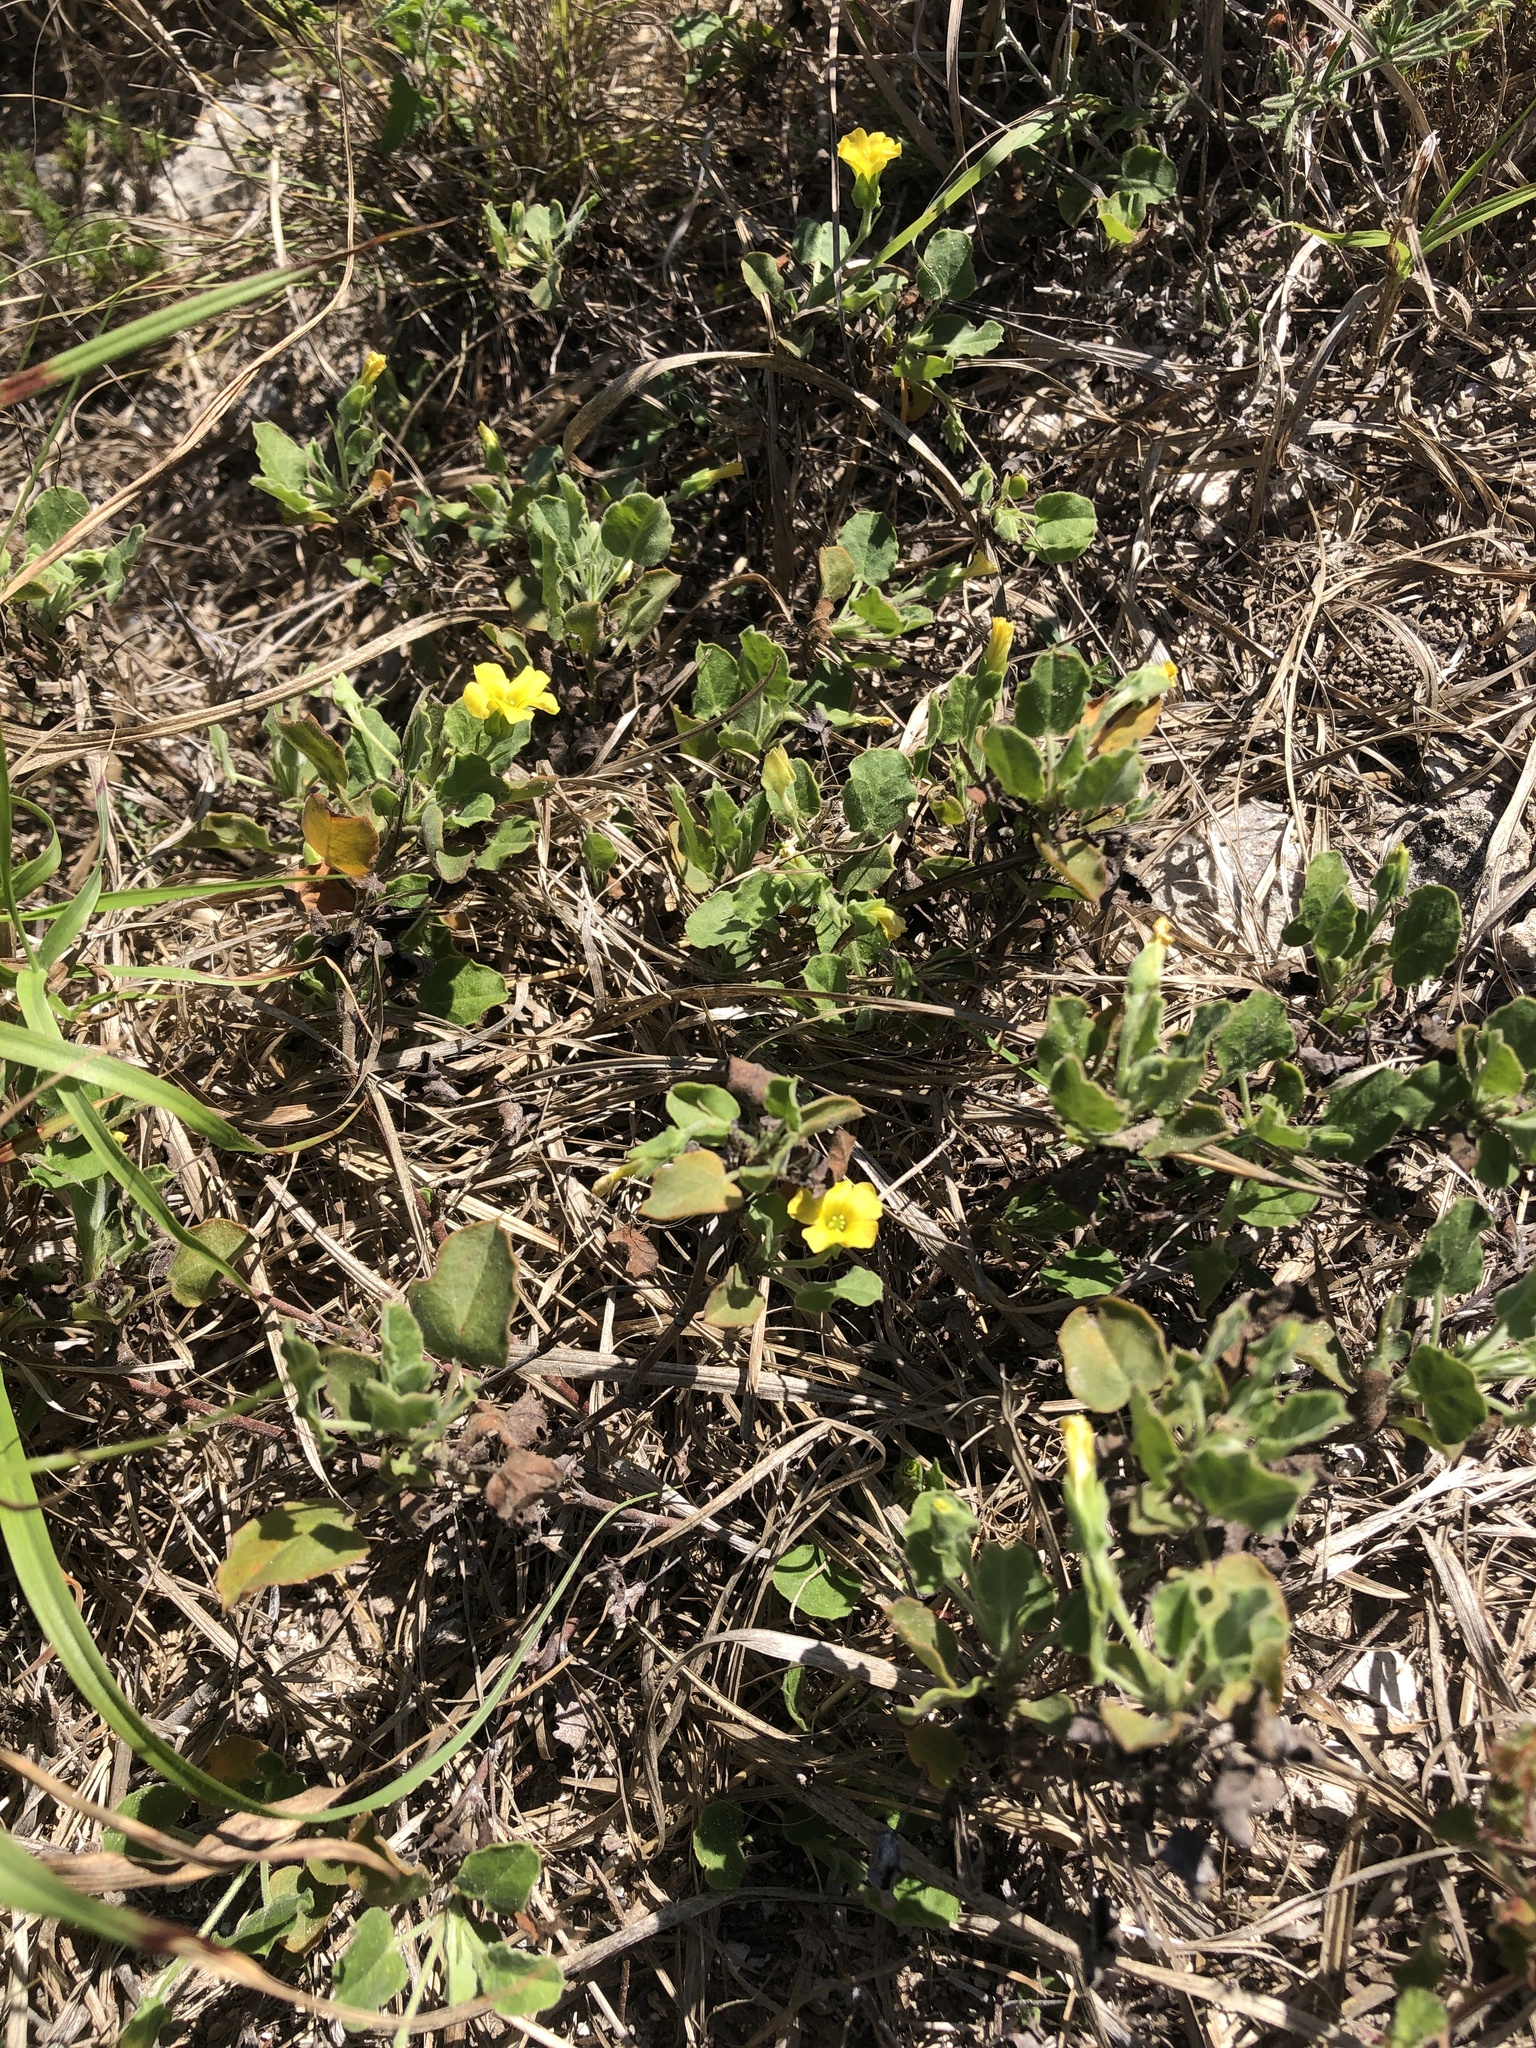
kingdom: Plantae
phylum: Tracheophyta
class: Magnoliopsida
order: Oxalidales
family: Oxalidaceae
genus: Oxalis
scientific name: Oxalis dichondrifolia
